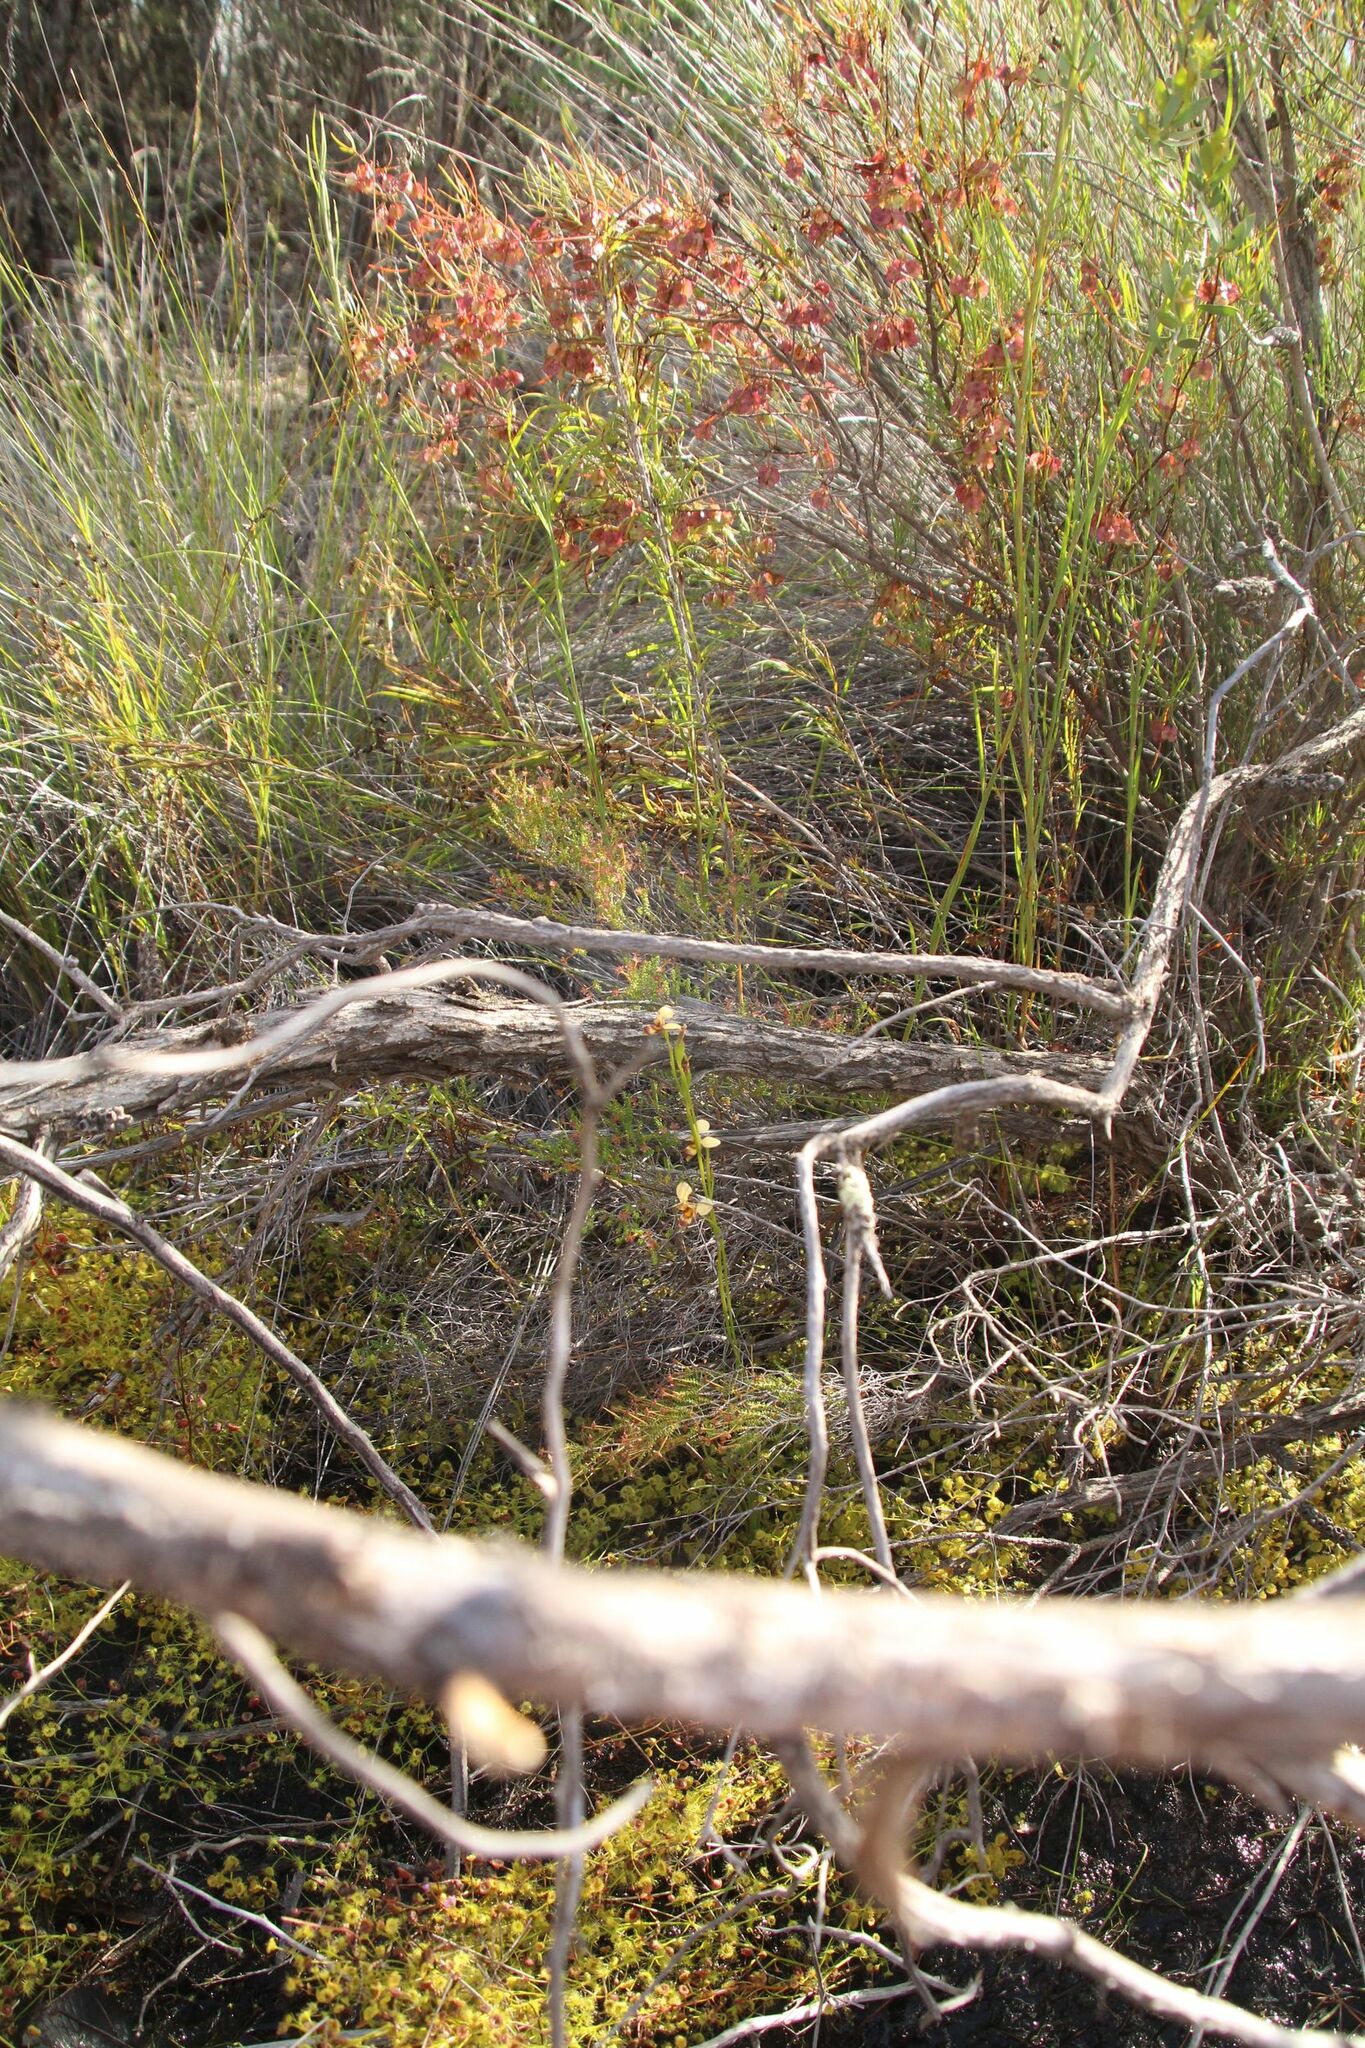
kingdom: Plantae
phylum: Tracheophyta
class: Liliopsida
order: Asparagales
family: Orchidaceae
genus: Diuris
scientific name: Diuris picta
